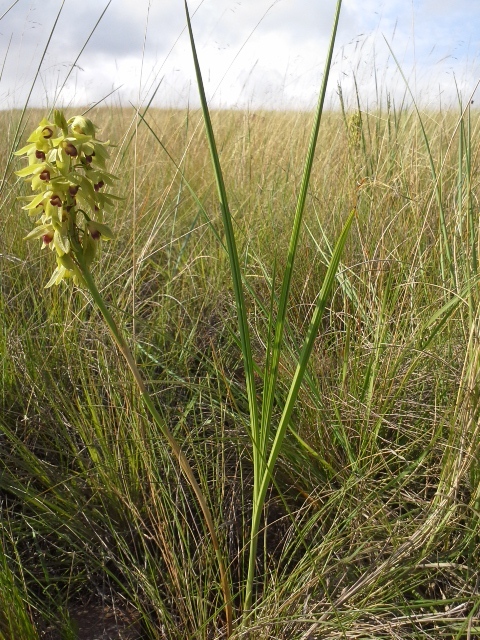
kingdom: Plantae
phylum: Tracheophyta
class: Liliopsida
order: Asparagales
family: Orchidaceae
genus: Eulophia
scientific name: Eulophia foliosa
